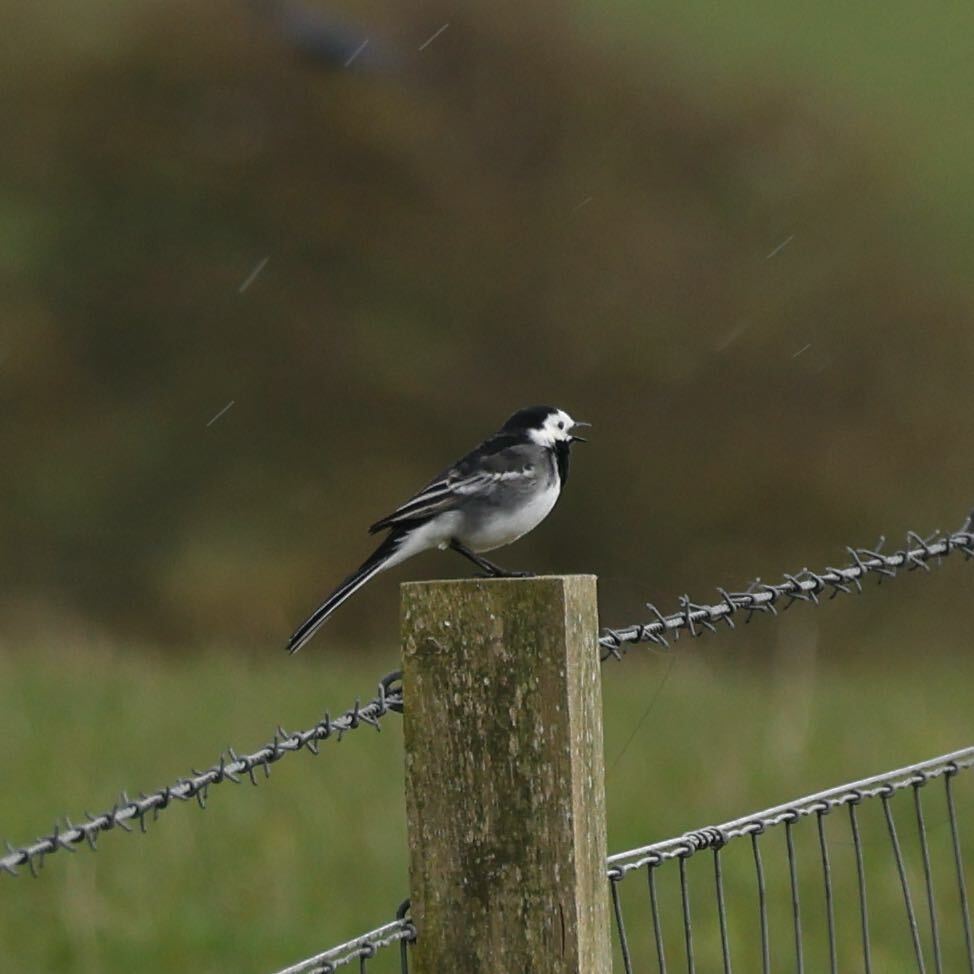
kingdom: Animalia
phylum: Chordata
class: Aves
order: Passeriformes
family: Motacillidae
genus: Motacilla
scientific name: Motacilla alba
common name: White wagtail
